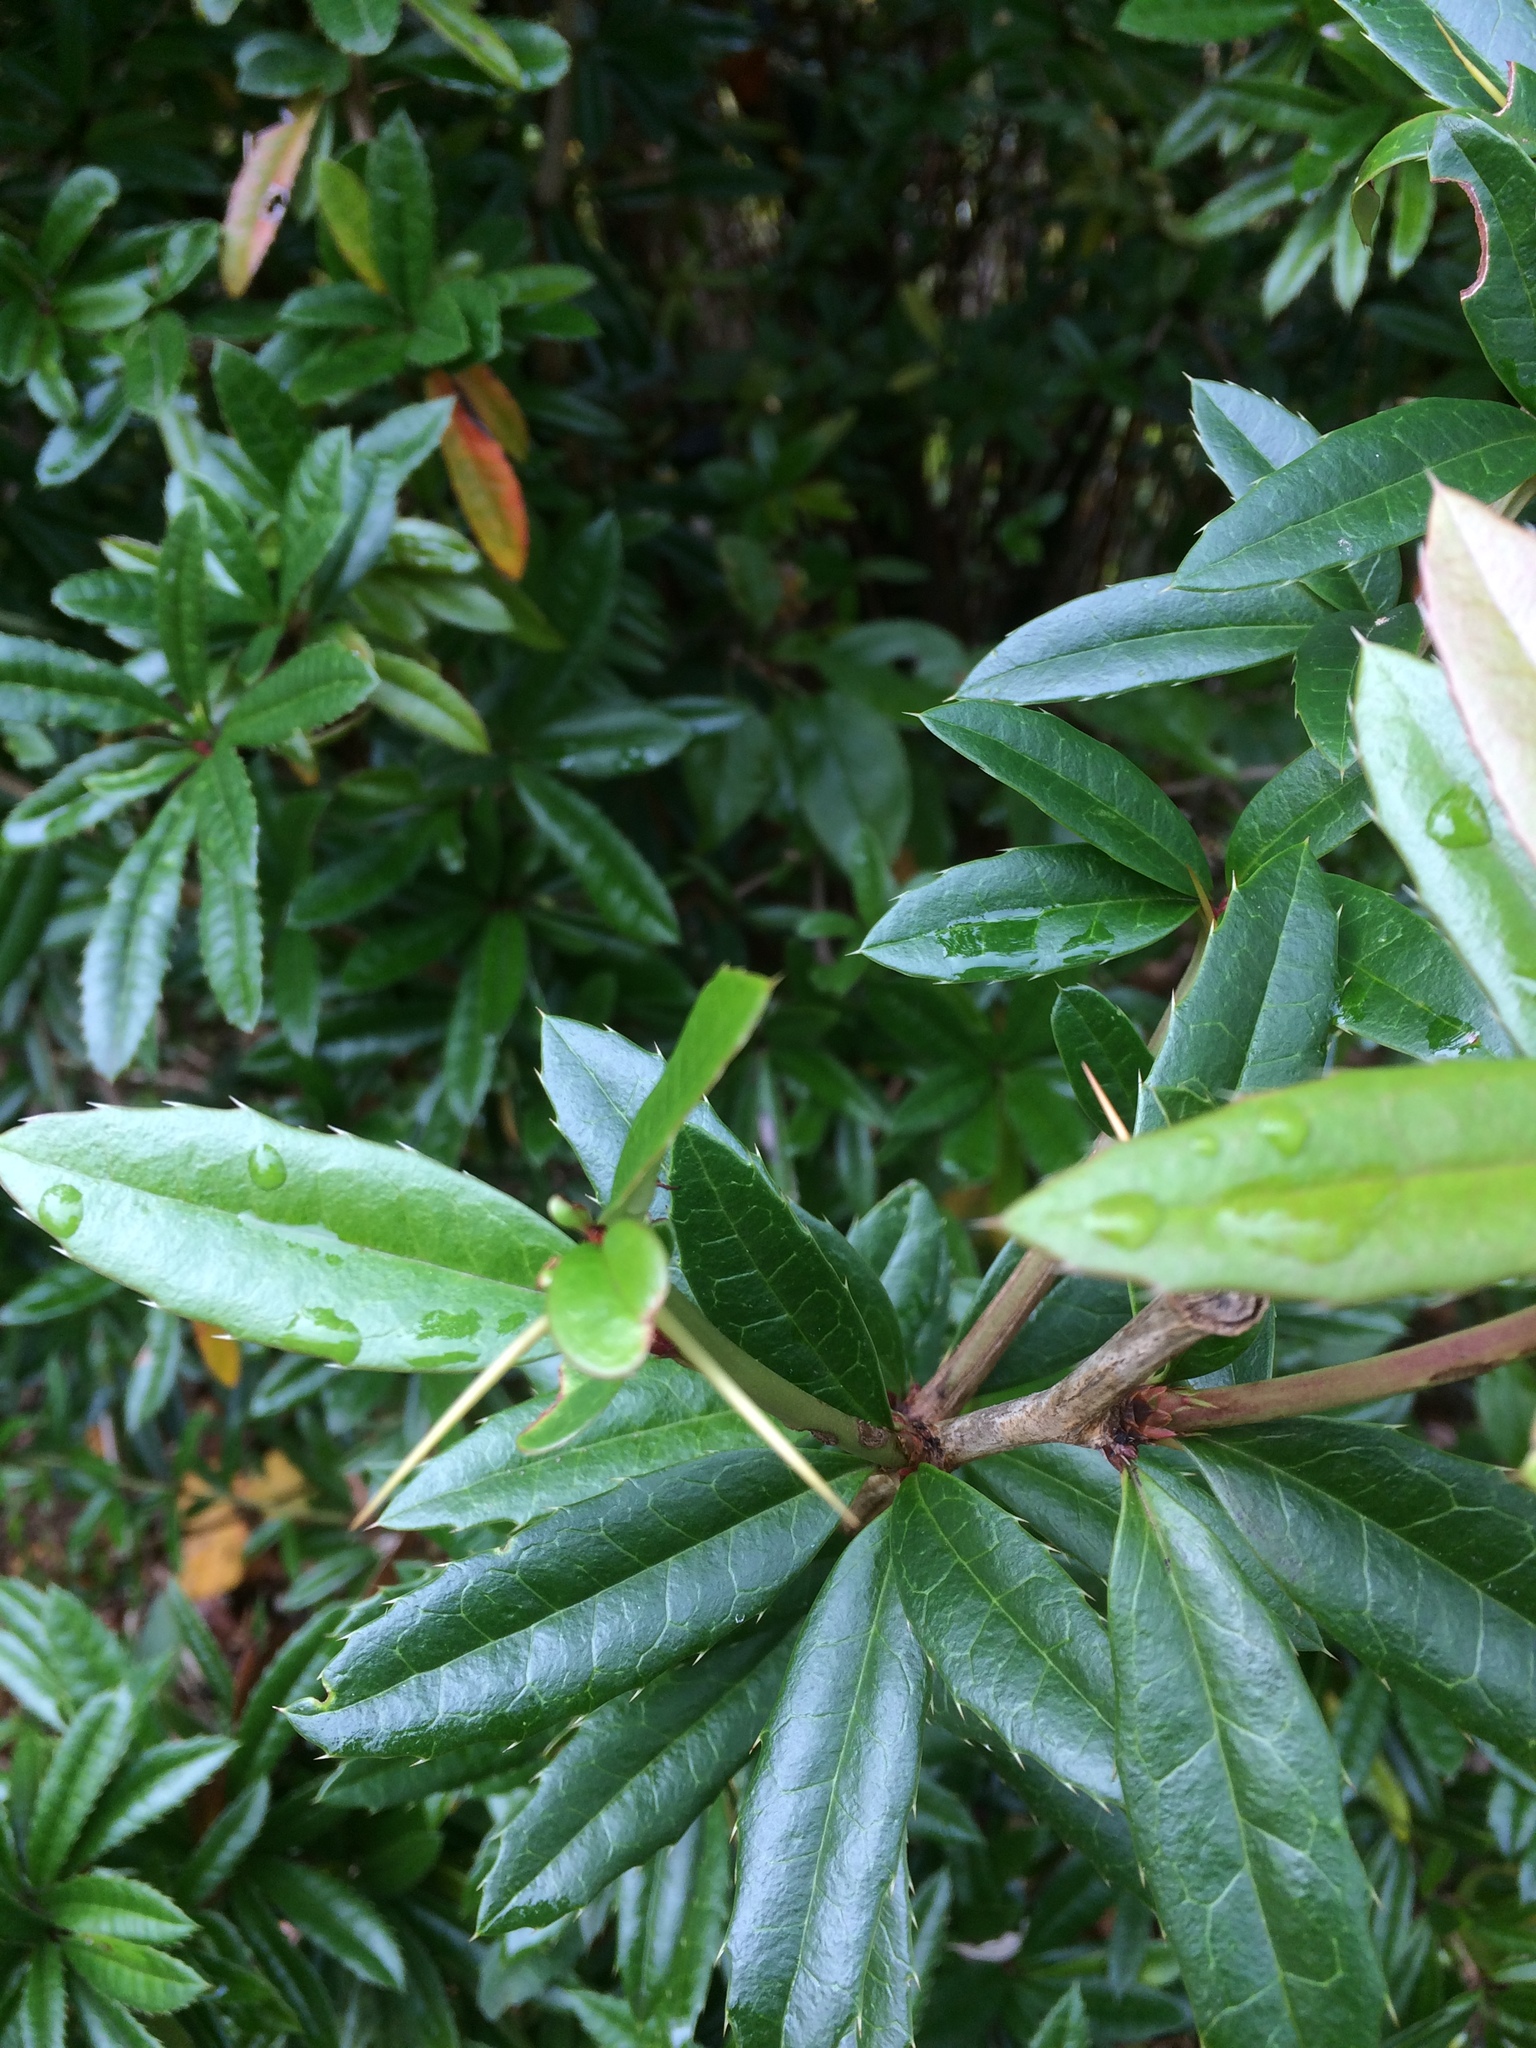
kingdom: Plantae
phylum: Tracheophyta
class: Magnoliopsida
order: Ranunculales
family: Berberidaceae
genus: Berberis
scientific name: Berberis julianae
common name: Wintergreen barberry
